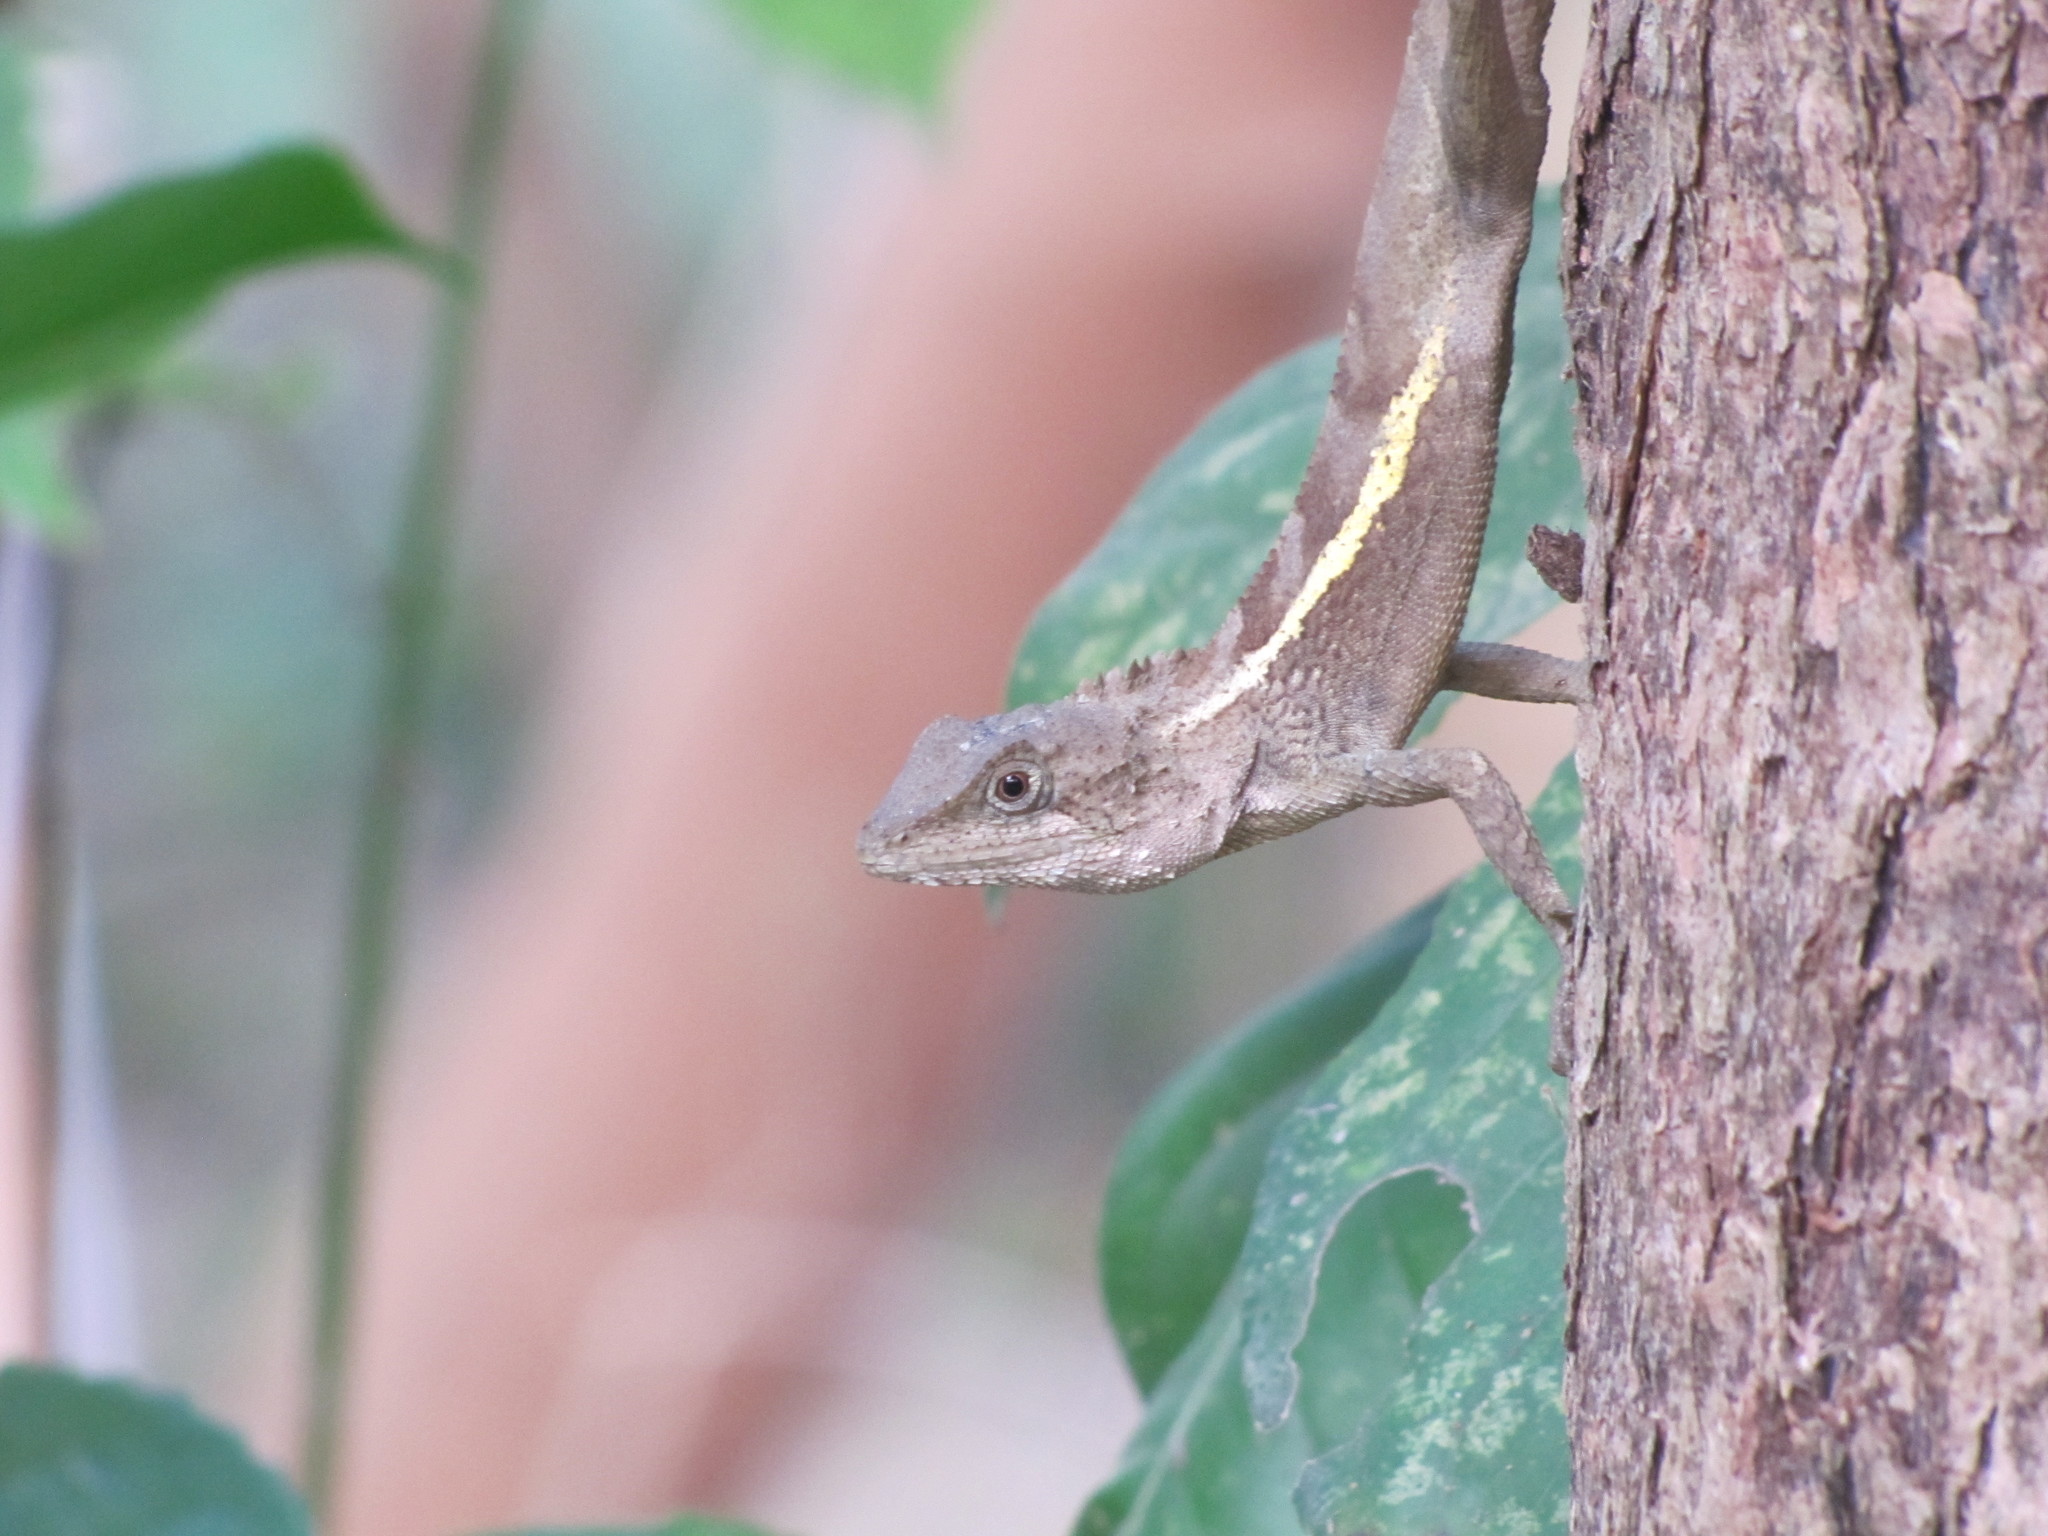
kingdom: Animalia
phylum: Chordata
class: Squamata
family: Agamidae
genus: Diploderma
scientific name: Diploderma swinhonis
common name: Taiwan japalure
